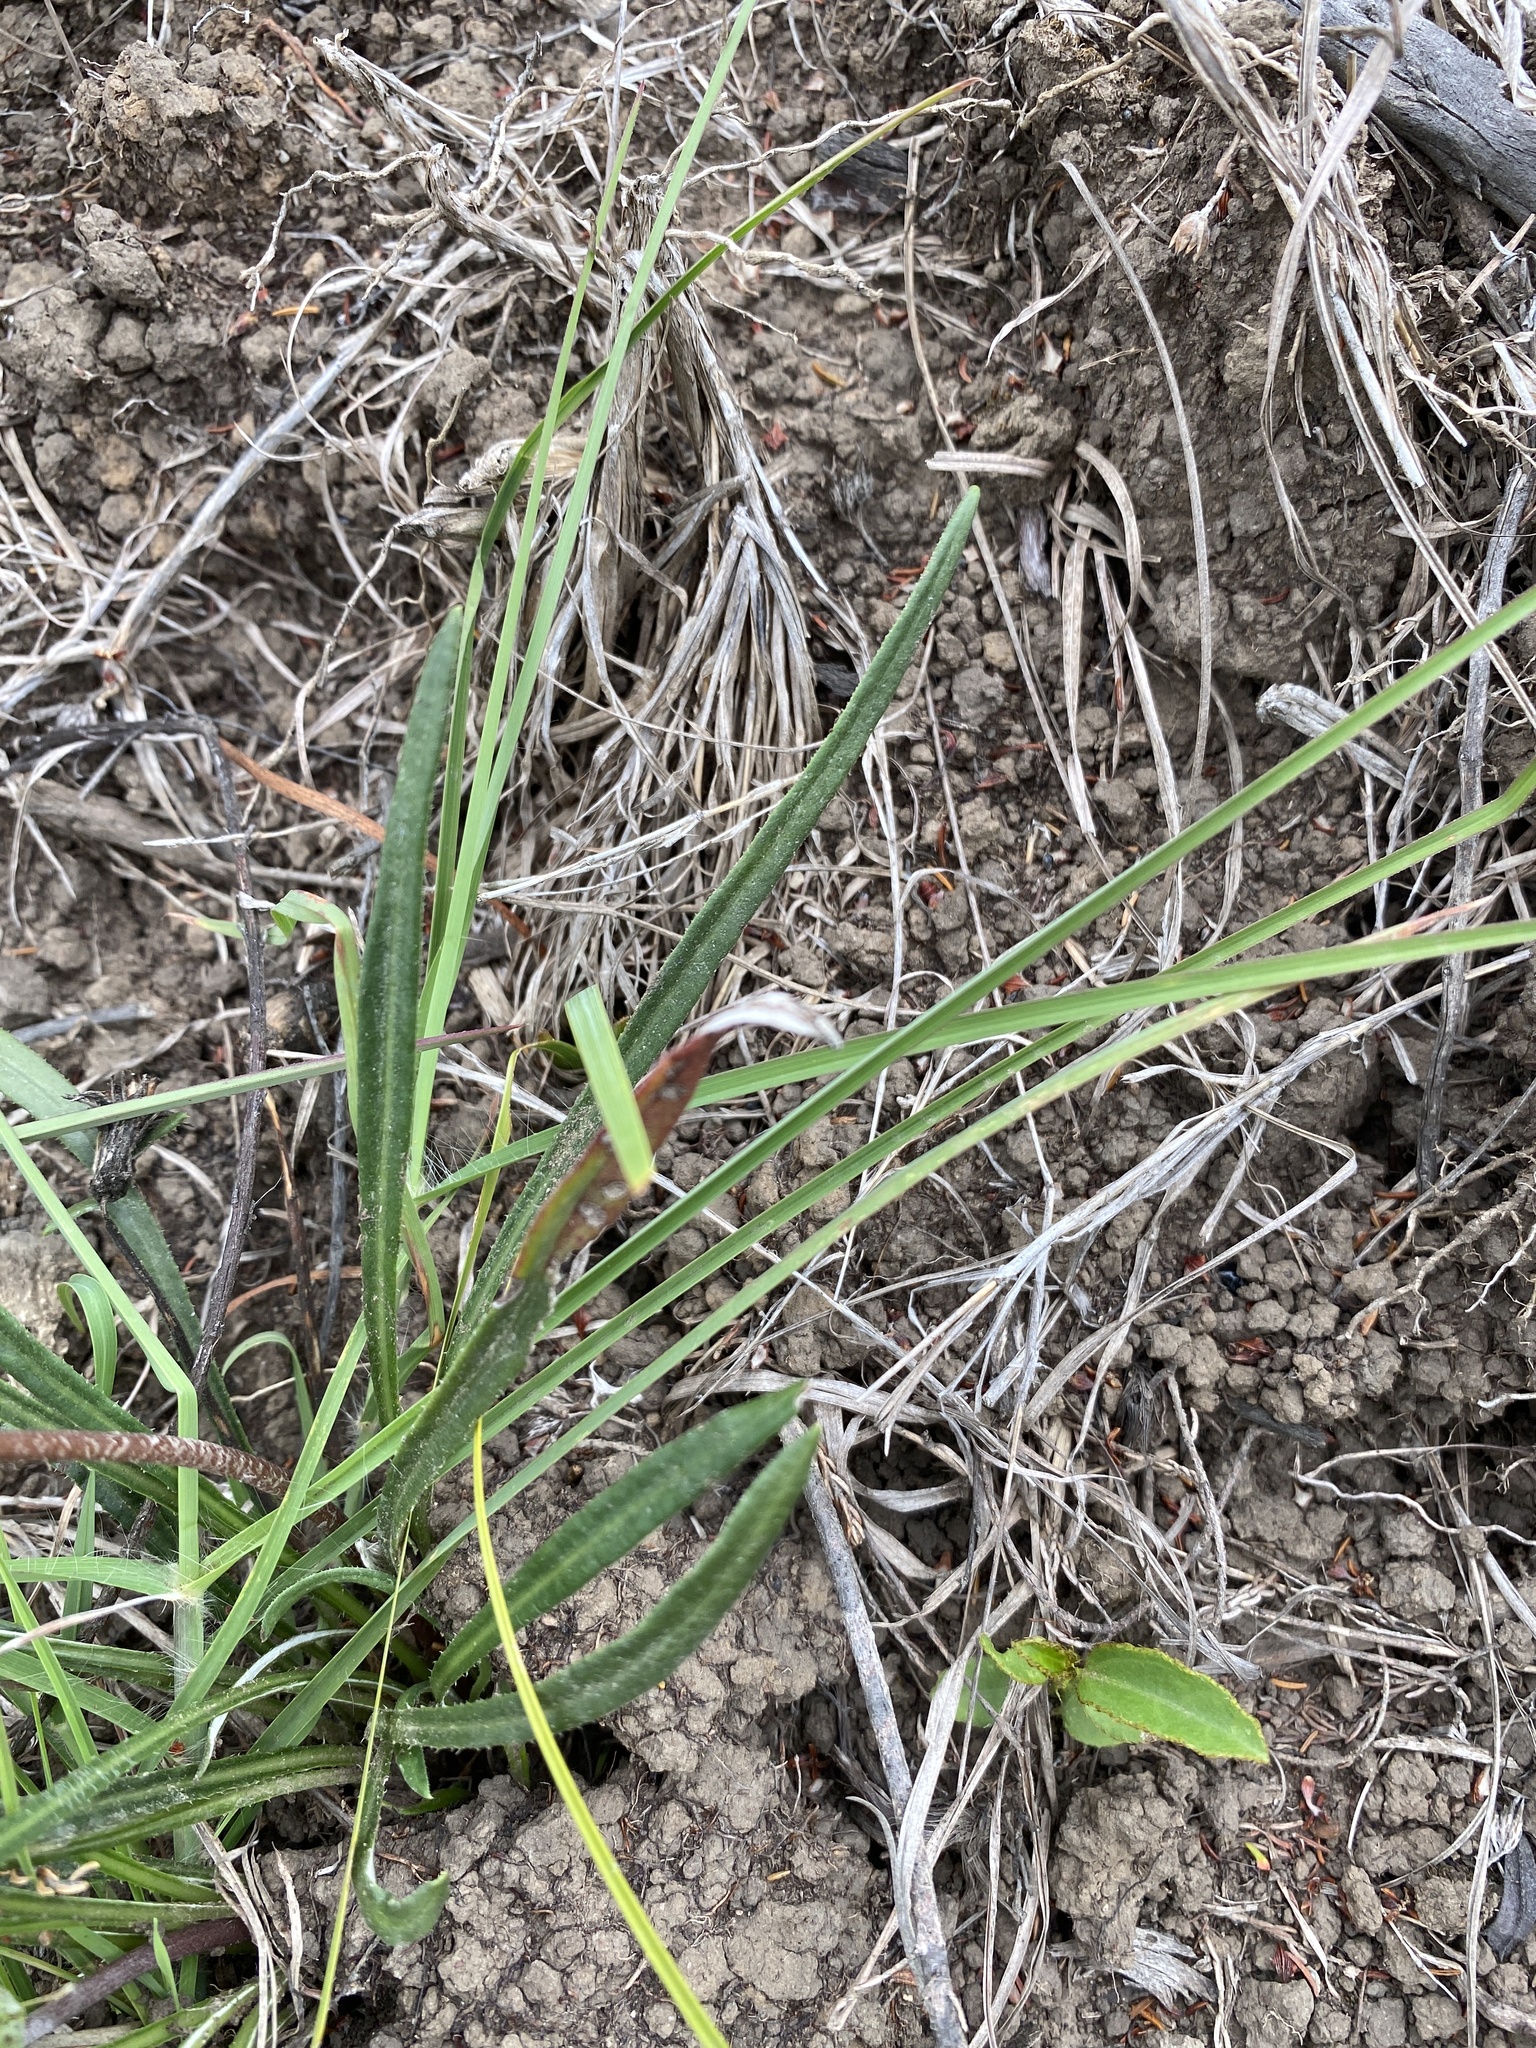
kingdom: Plantae
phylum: Tracheophyta
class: Magnoliopsida
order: Asterales
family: Asteraceae
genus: Gazania
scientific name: Gazania linearis
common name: Treasureflower
